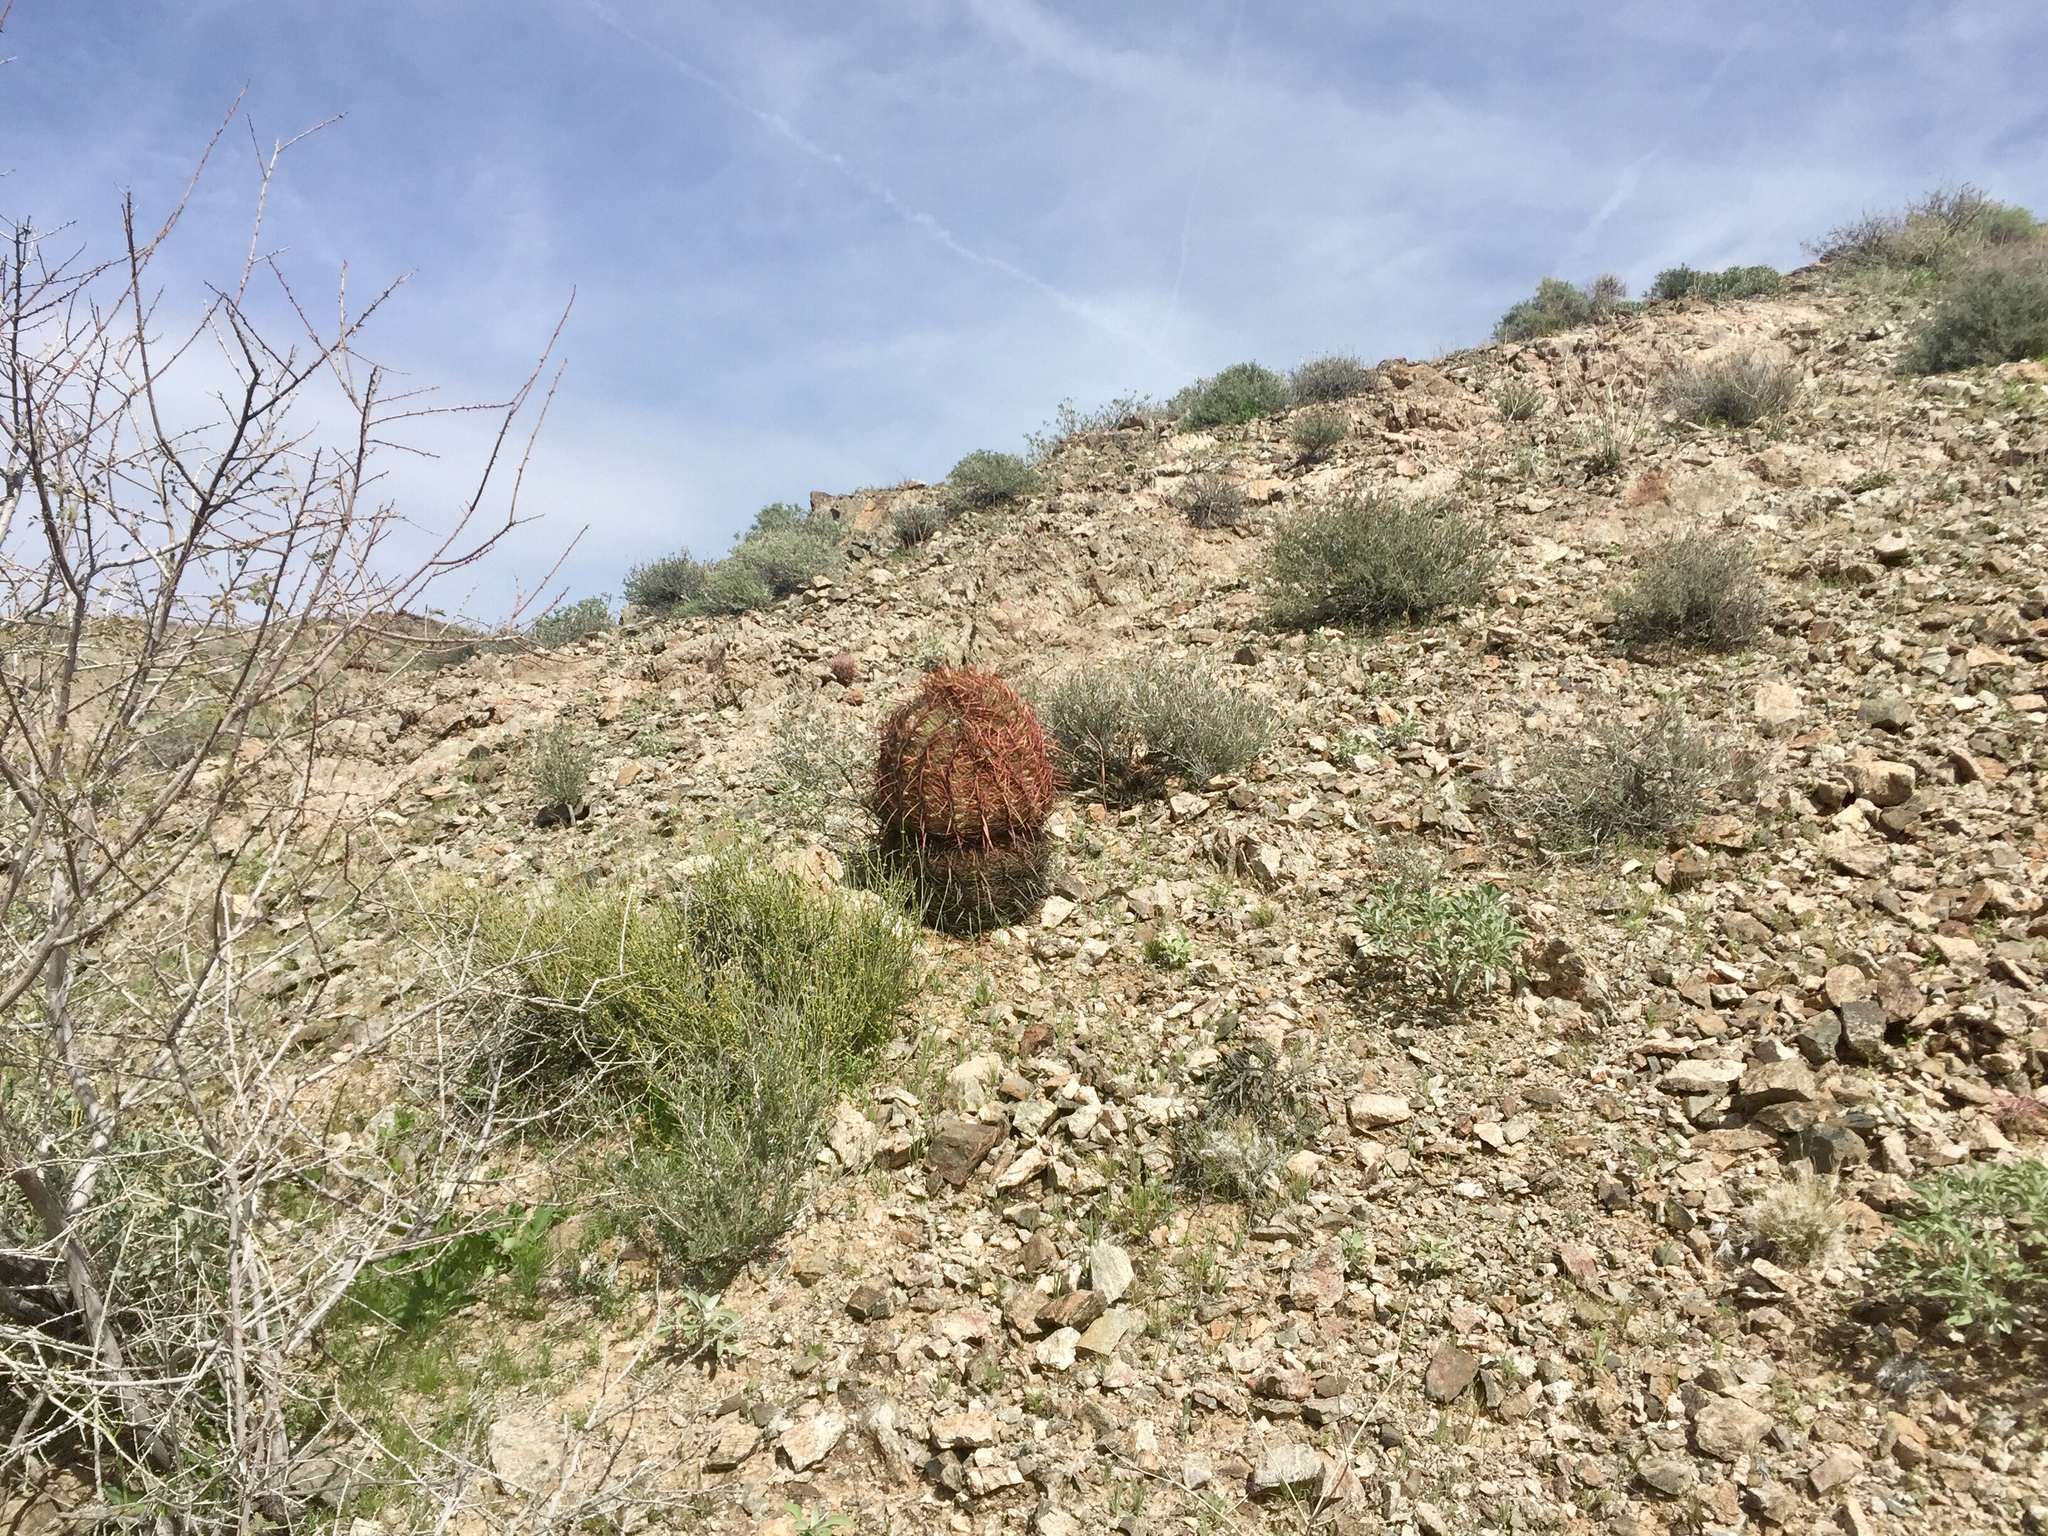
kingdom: Plantae
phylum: Tracheophyta
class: Magnoliopsida
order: Caryophyllales
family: Cactaceae
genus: Ferocactus
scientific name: Ferocactus cylindraceus
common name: California barrel cactus
